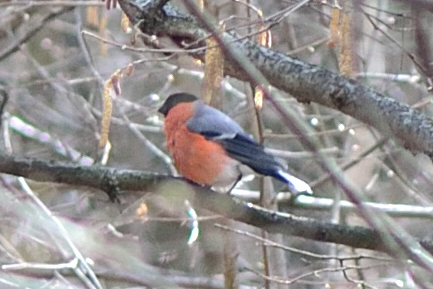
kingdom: Animalia
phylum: Chordata
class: Aves
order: Passeriformes
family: Fringillidae
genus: Pyrrhula
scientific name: Pyrrhula pyrrhula
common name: Eurasian bullfinch
